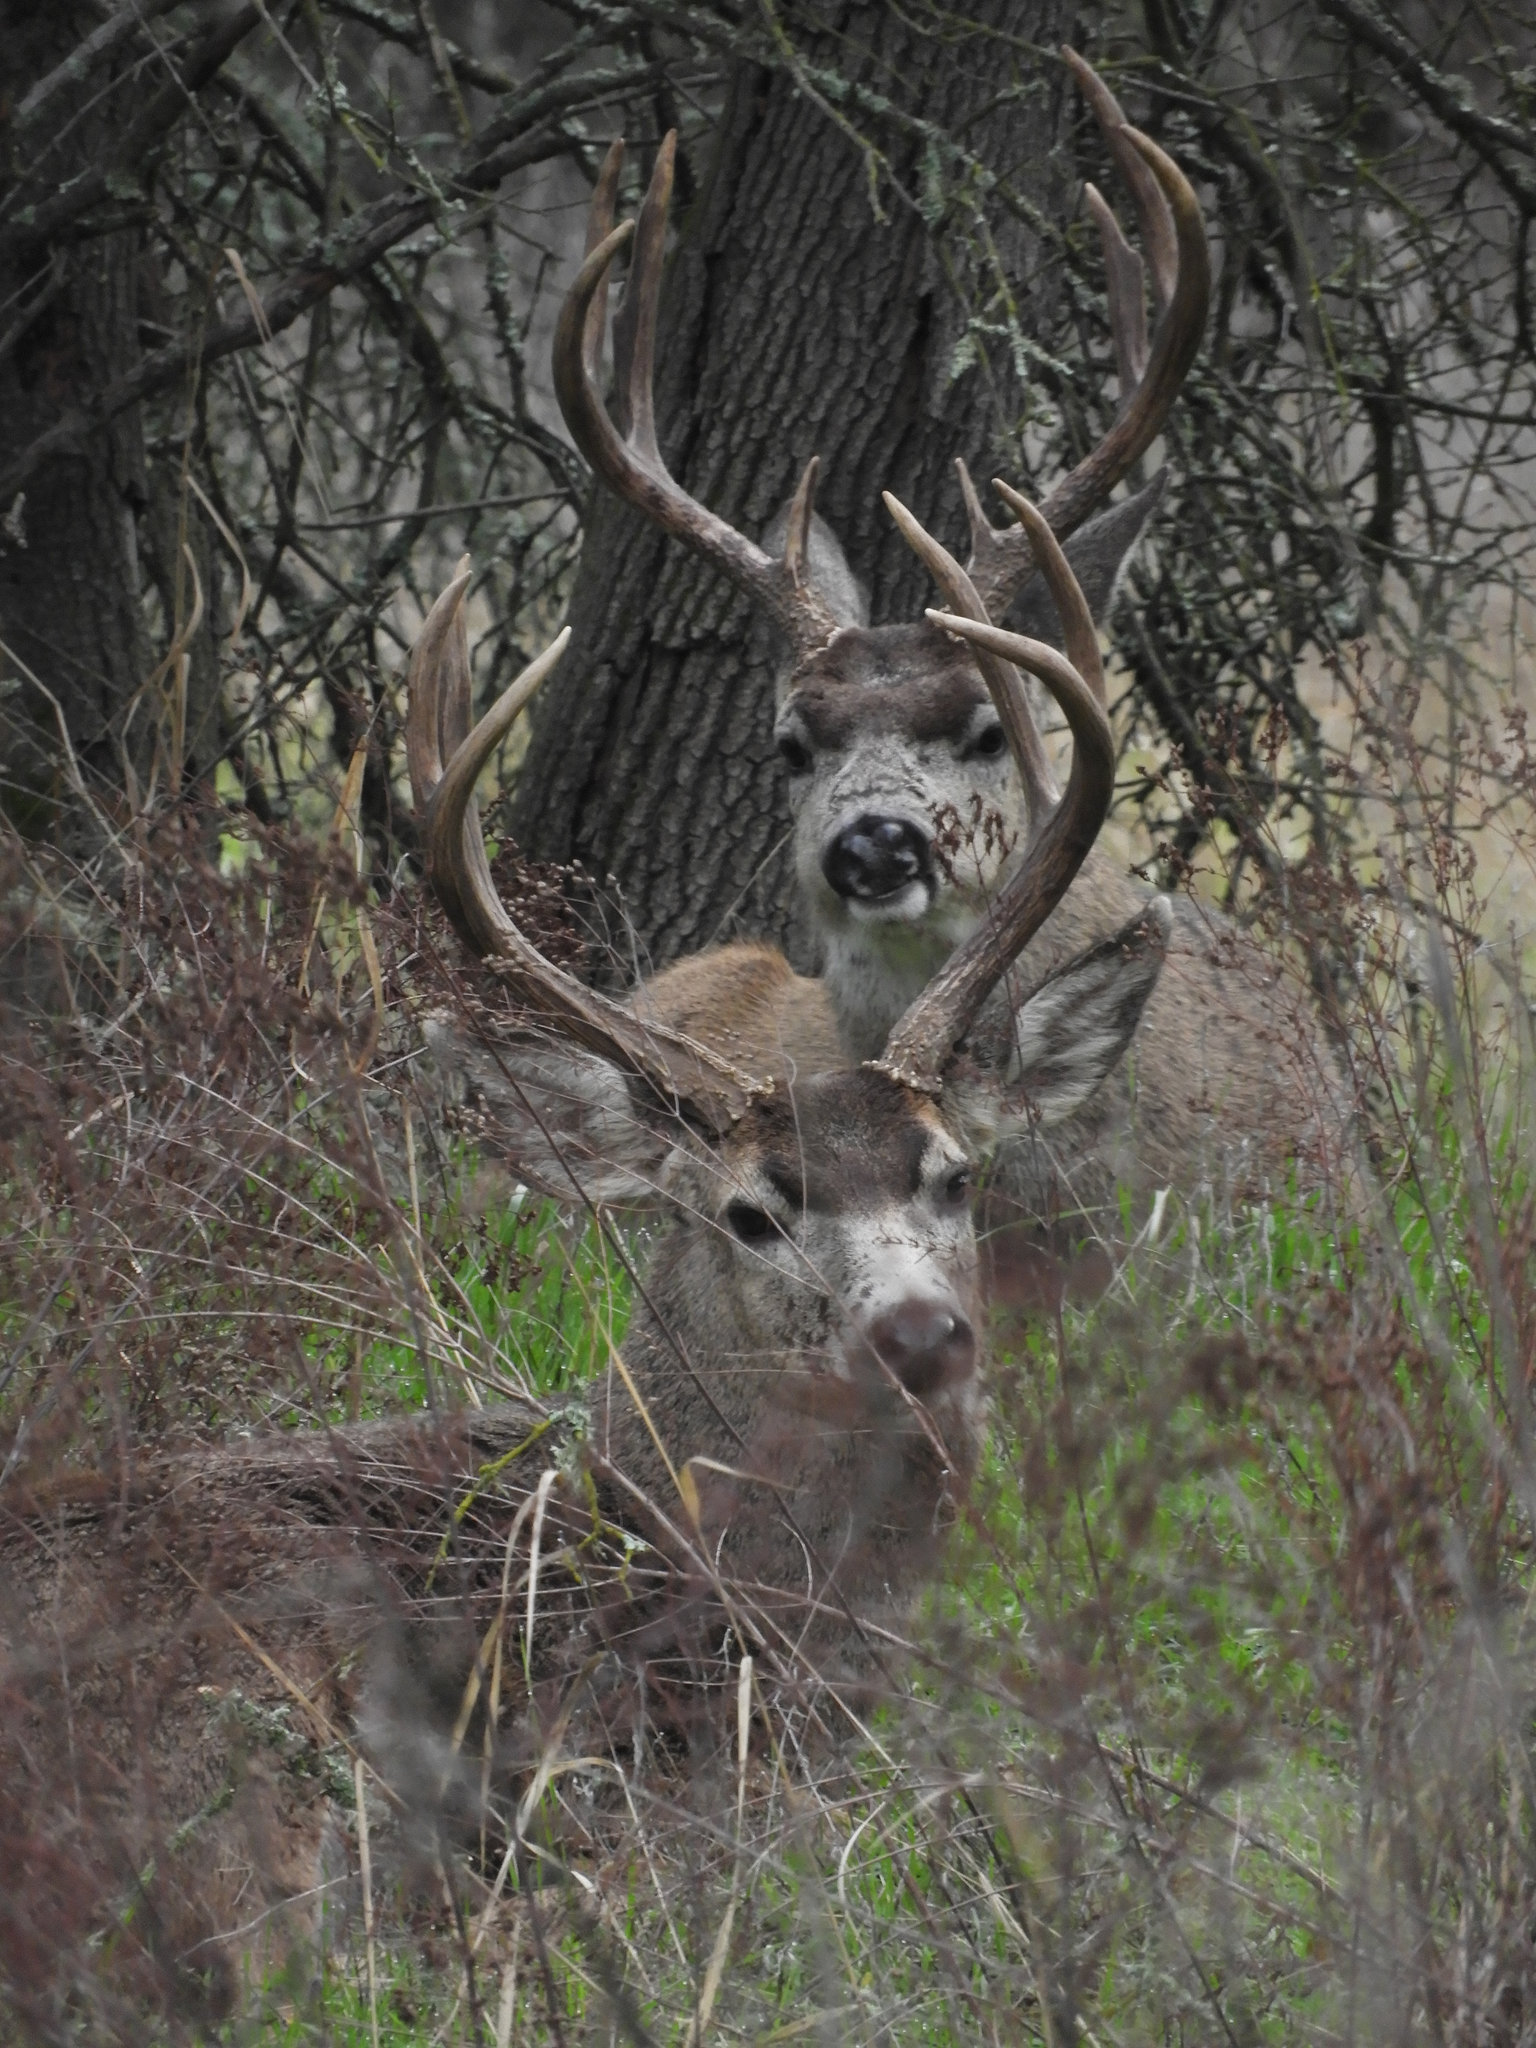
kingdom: Animalia
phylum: Chordata
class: Mammalia
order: Artiodactyla
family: Cervidae
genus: Odocoileus
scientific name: Odocoileus hemionus
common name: Mule deer
